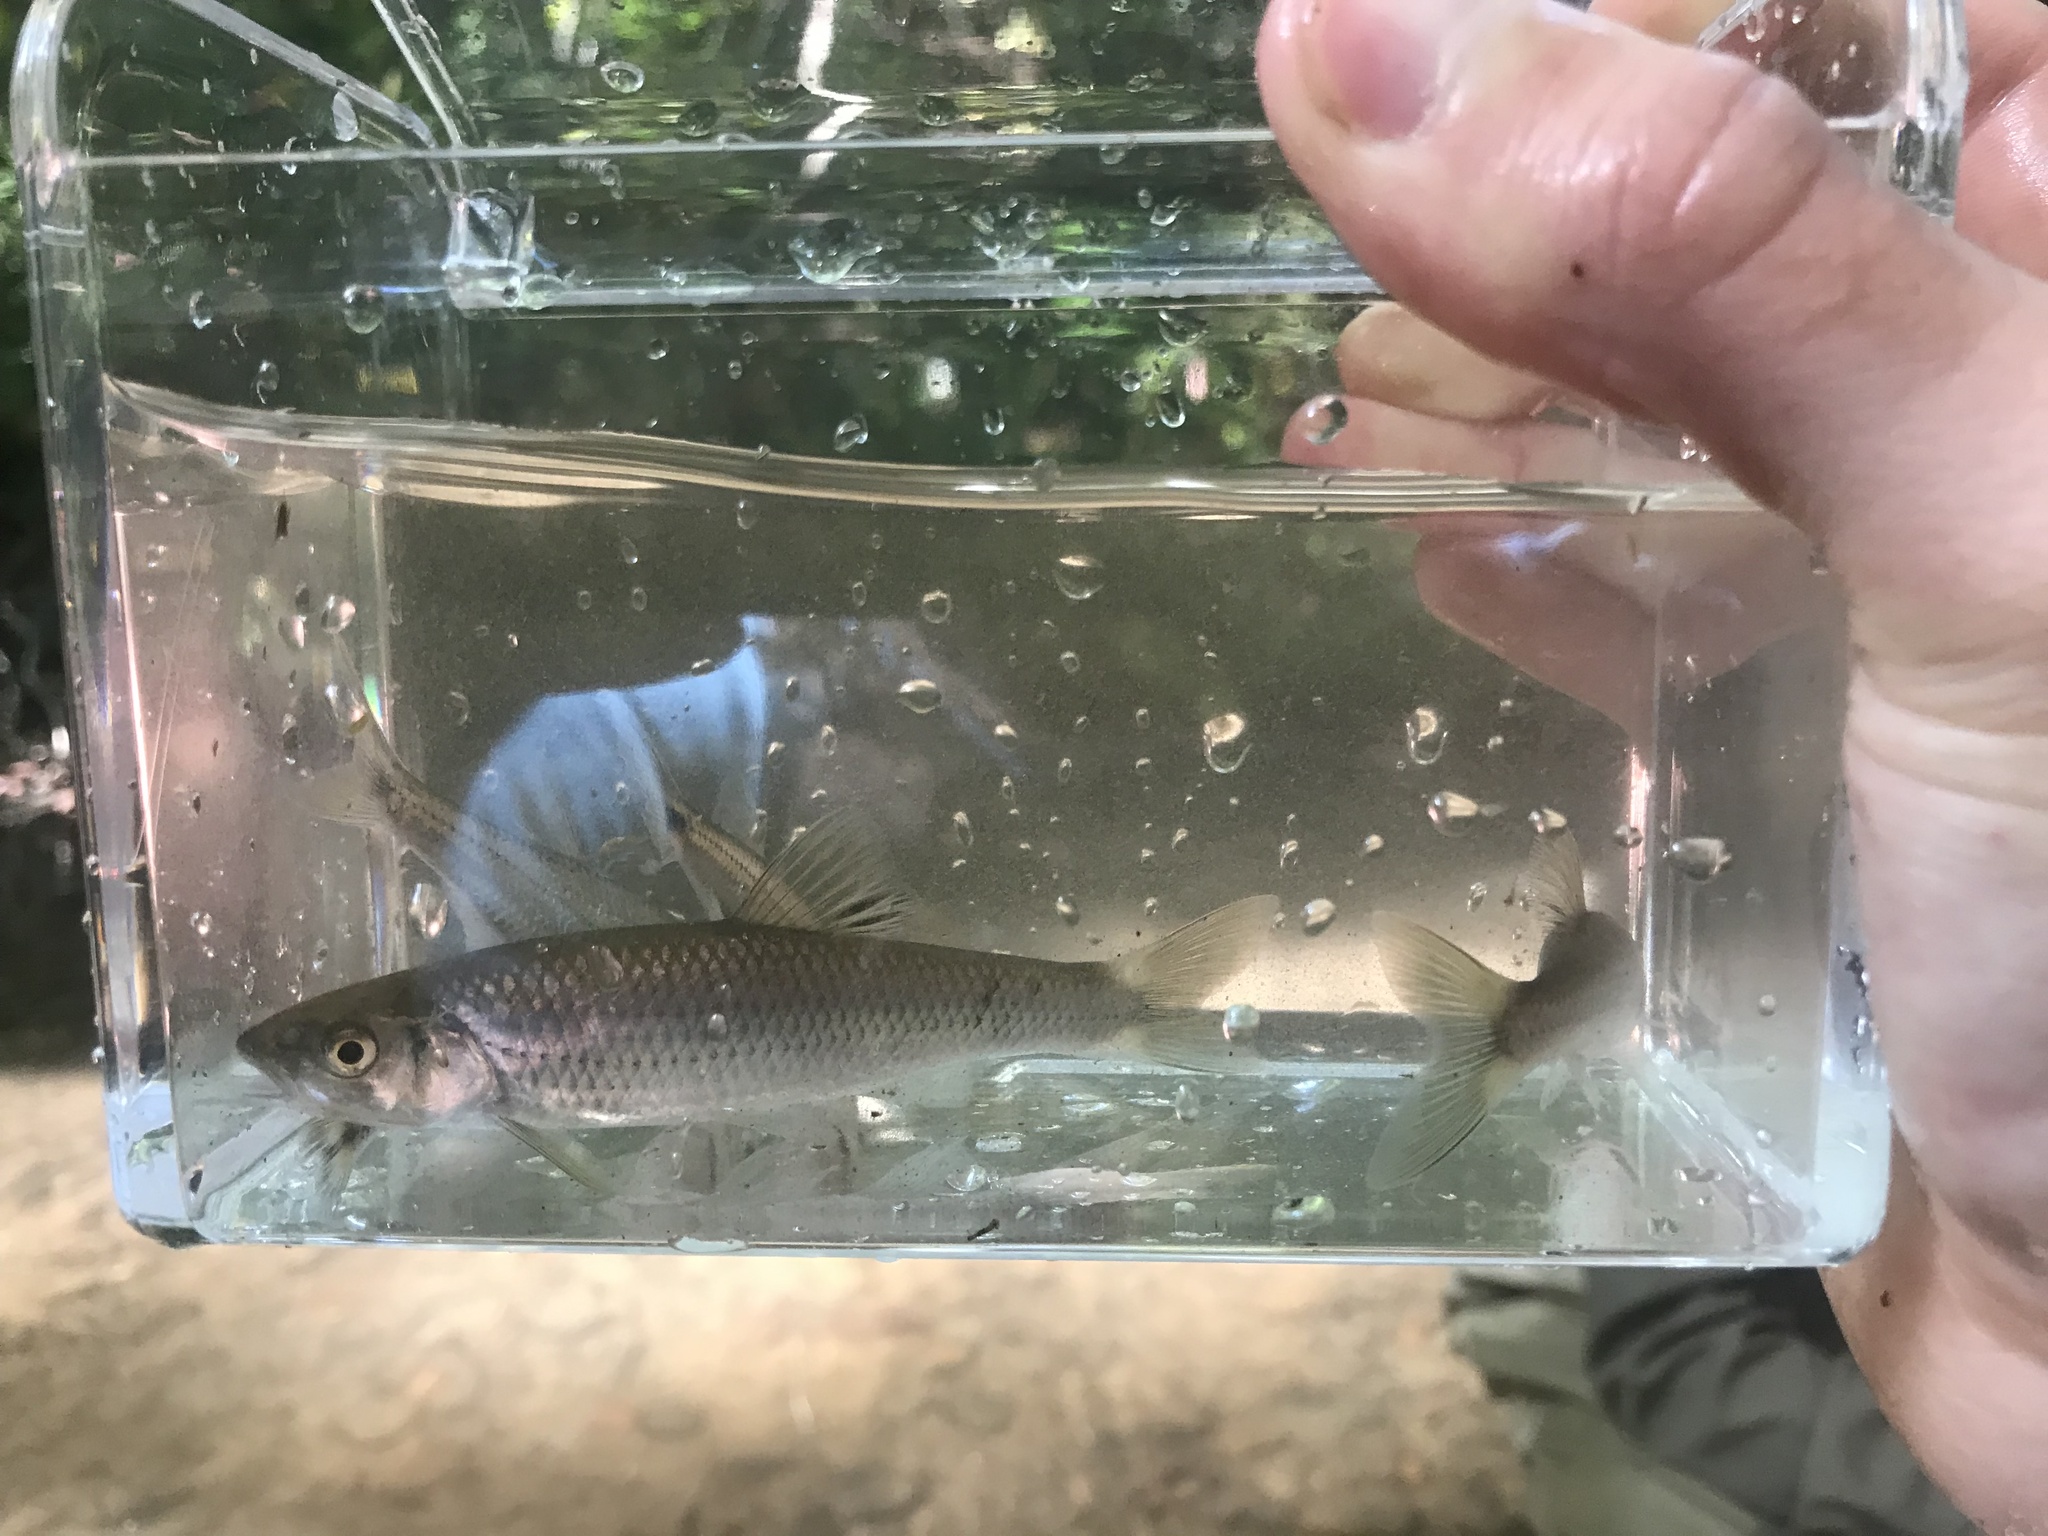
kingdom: Animalia
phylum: Chordata
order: Cypriniformes
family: Cyprinidae
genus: Cyprinella
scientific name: Cyprinella galactura
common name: Whitetail shiner
